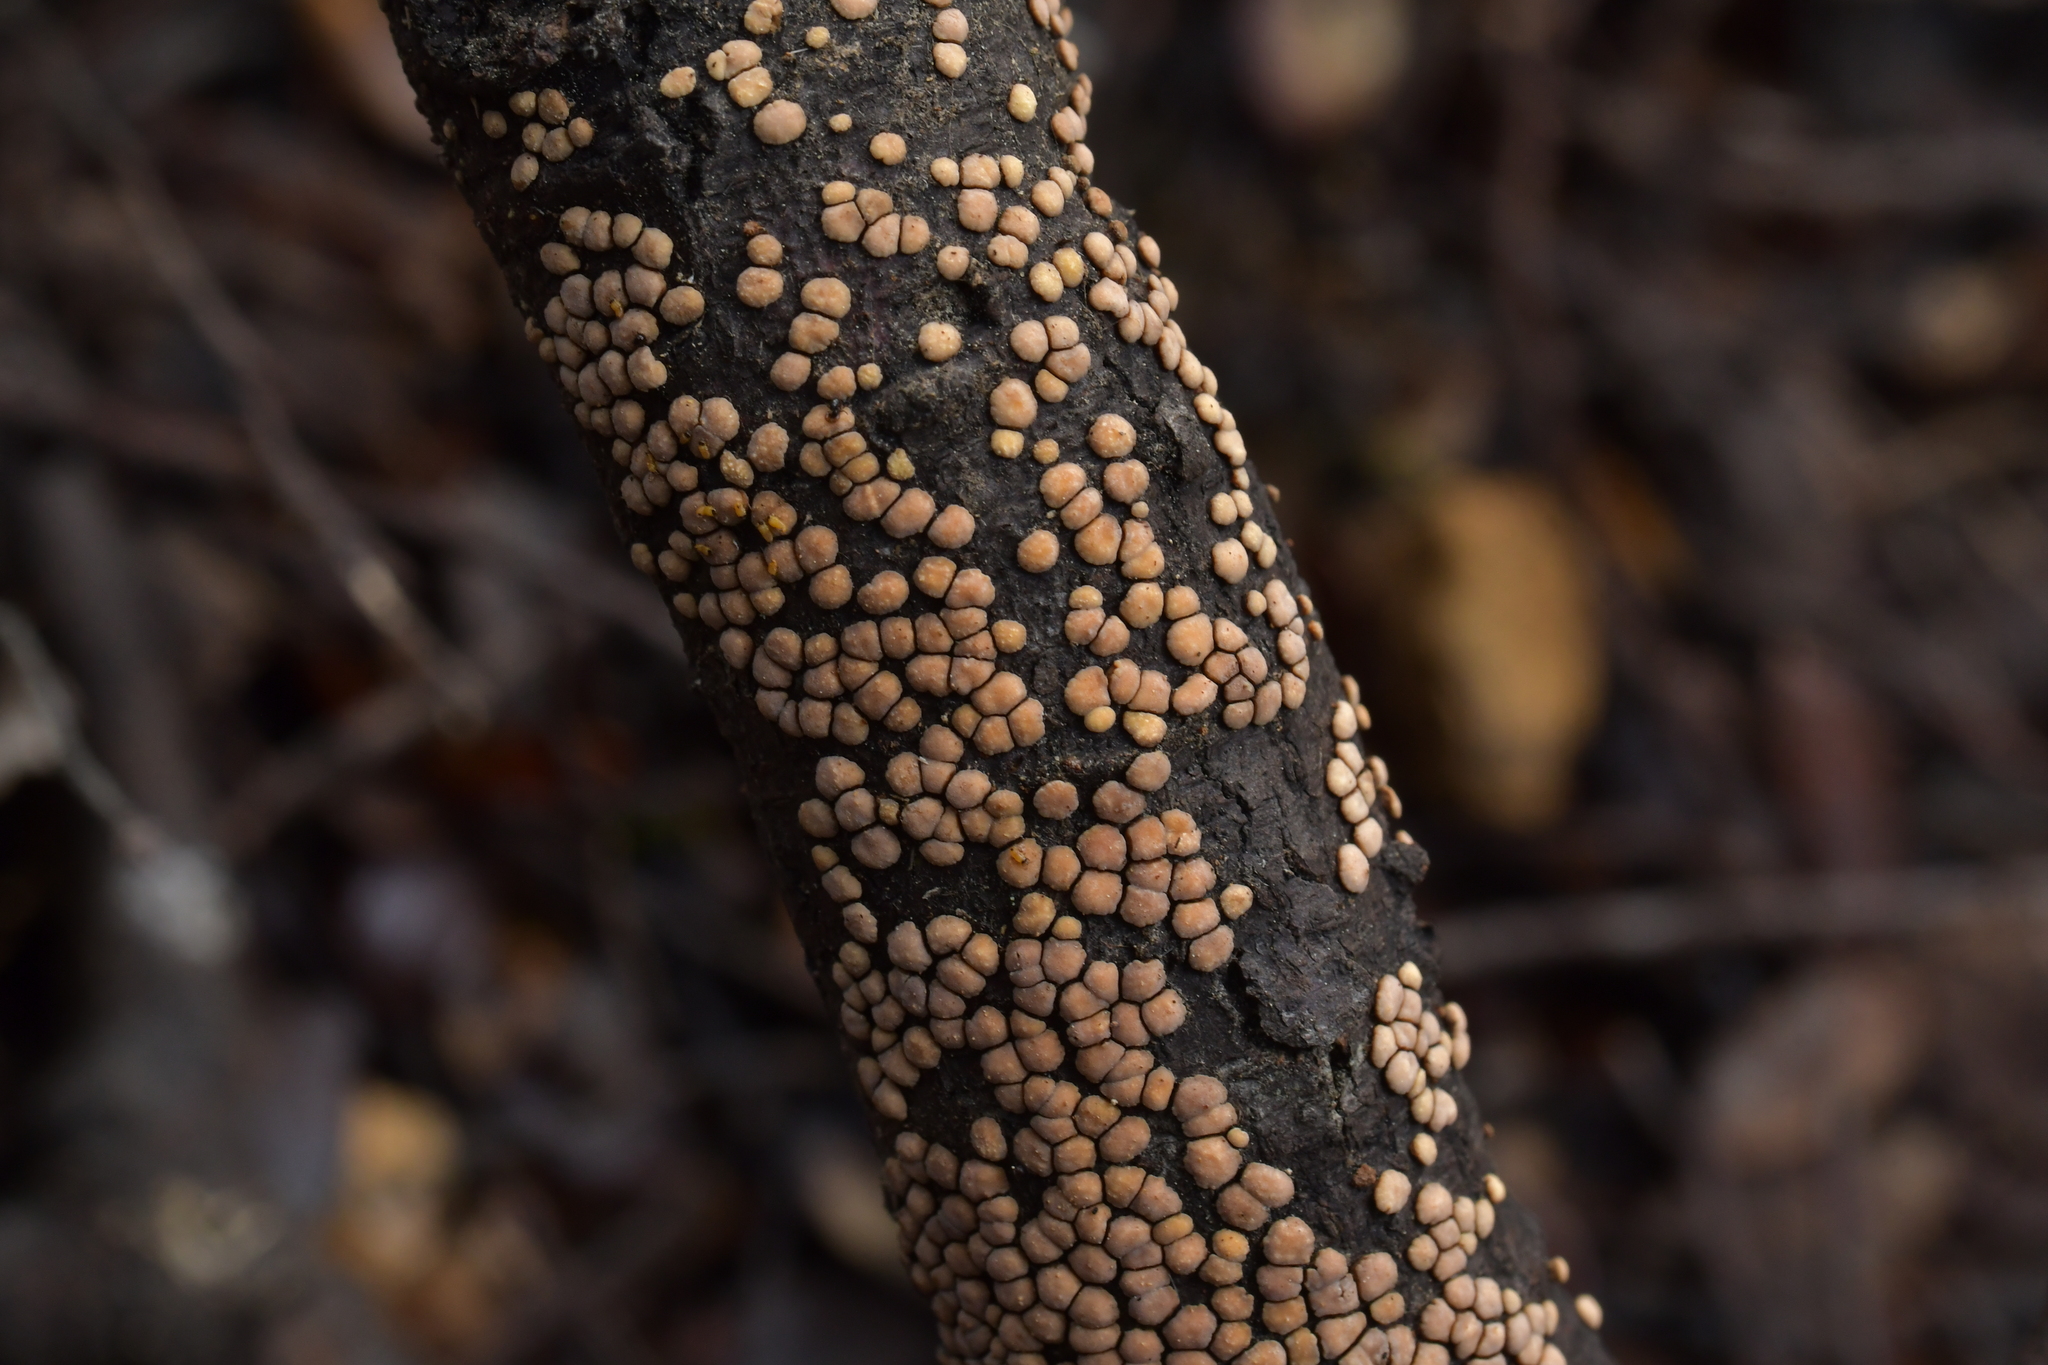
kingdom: Fungi
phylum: Basidiomycota
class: Agaricomycetes
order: Russulales
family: Stereaceae
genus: Aleurodiscus
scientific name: Aleurodiscus berggrenii
